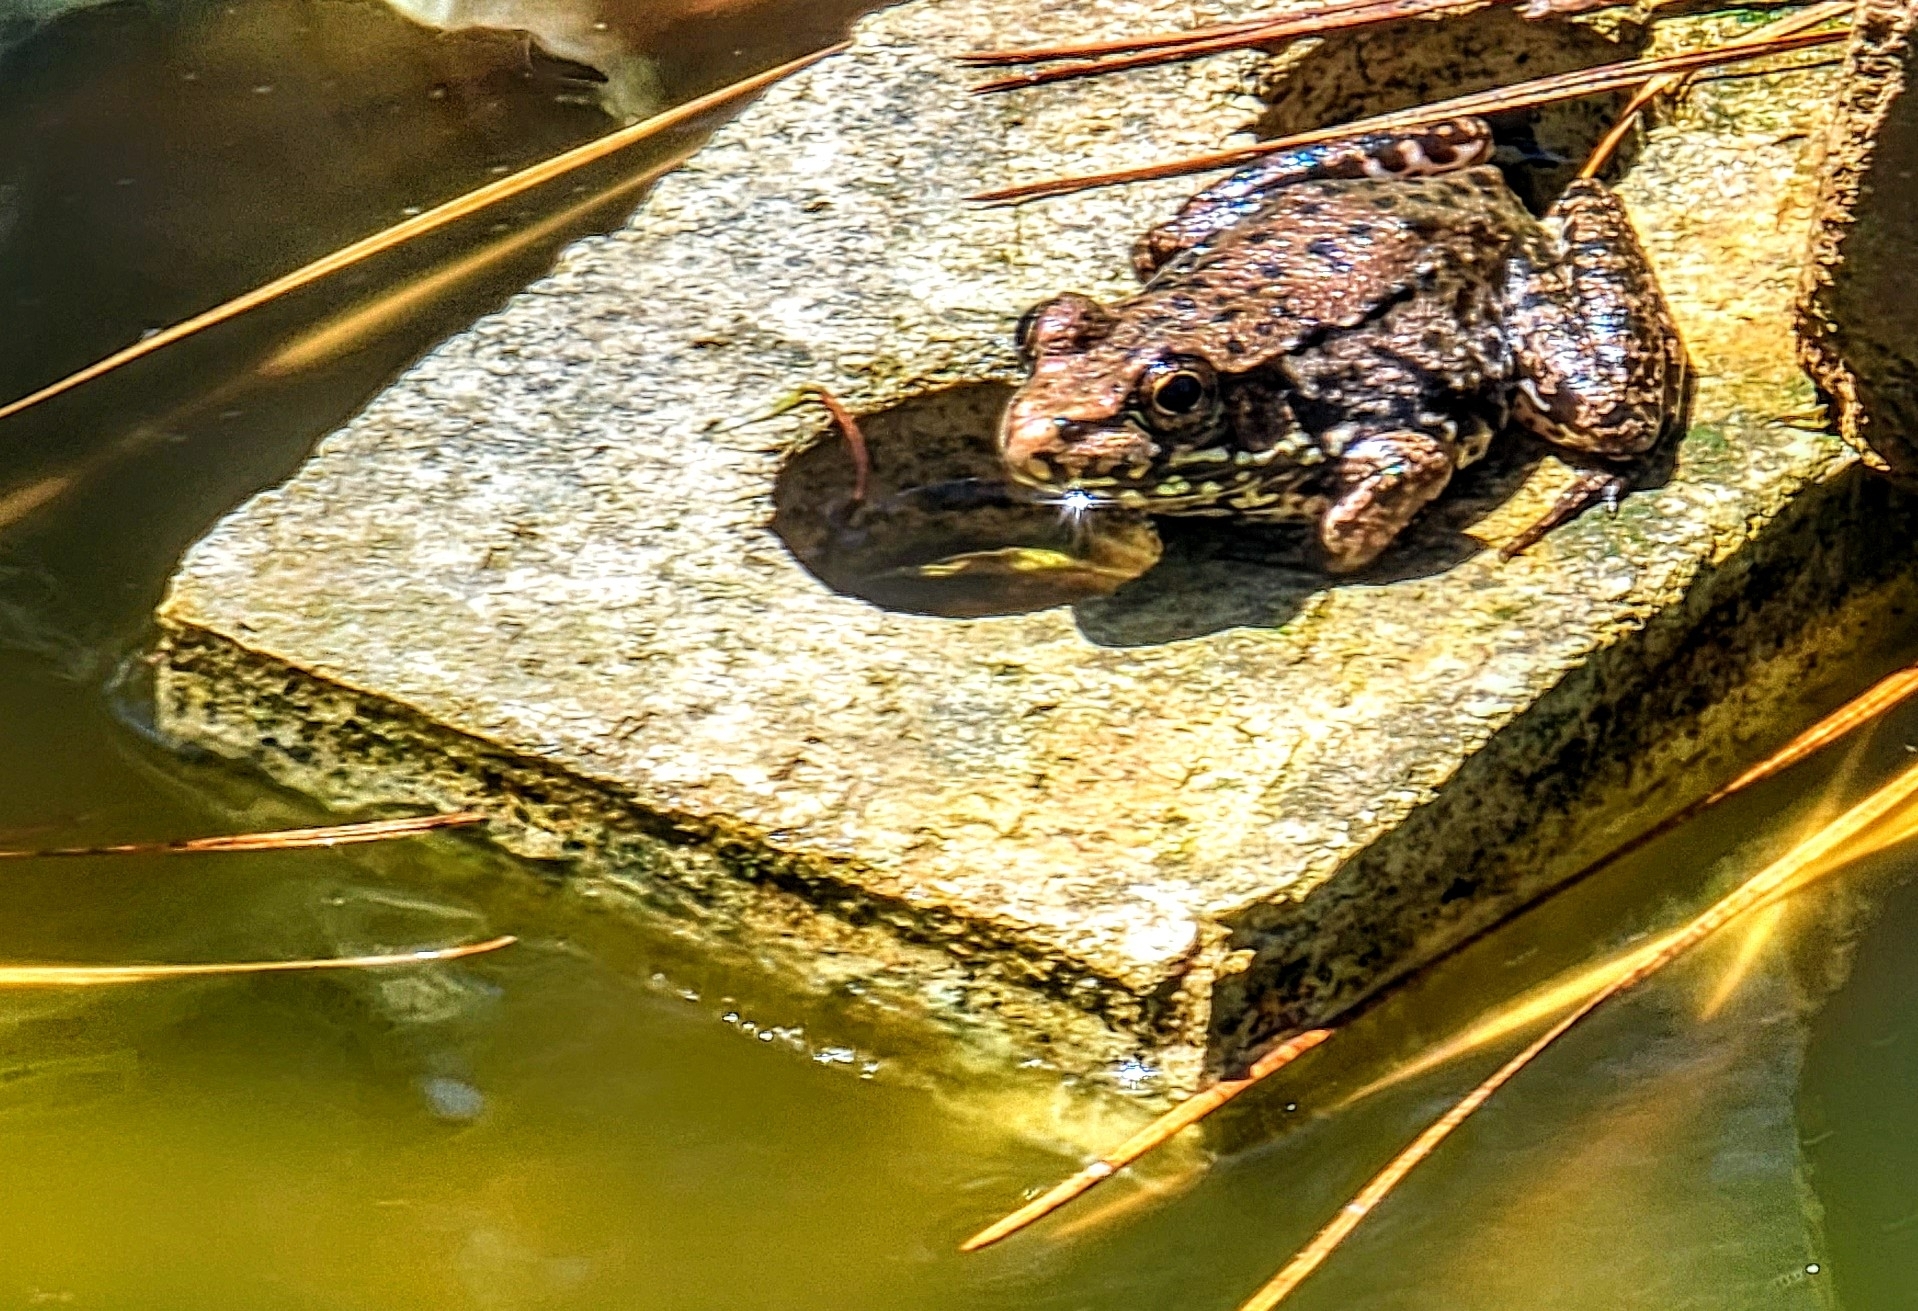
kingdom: Animalia
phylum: Chordata
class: Amphibia
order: Anura
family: Ranidae
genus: Lithobates
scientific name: Lithobates clamitans
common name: Green frog
